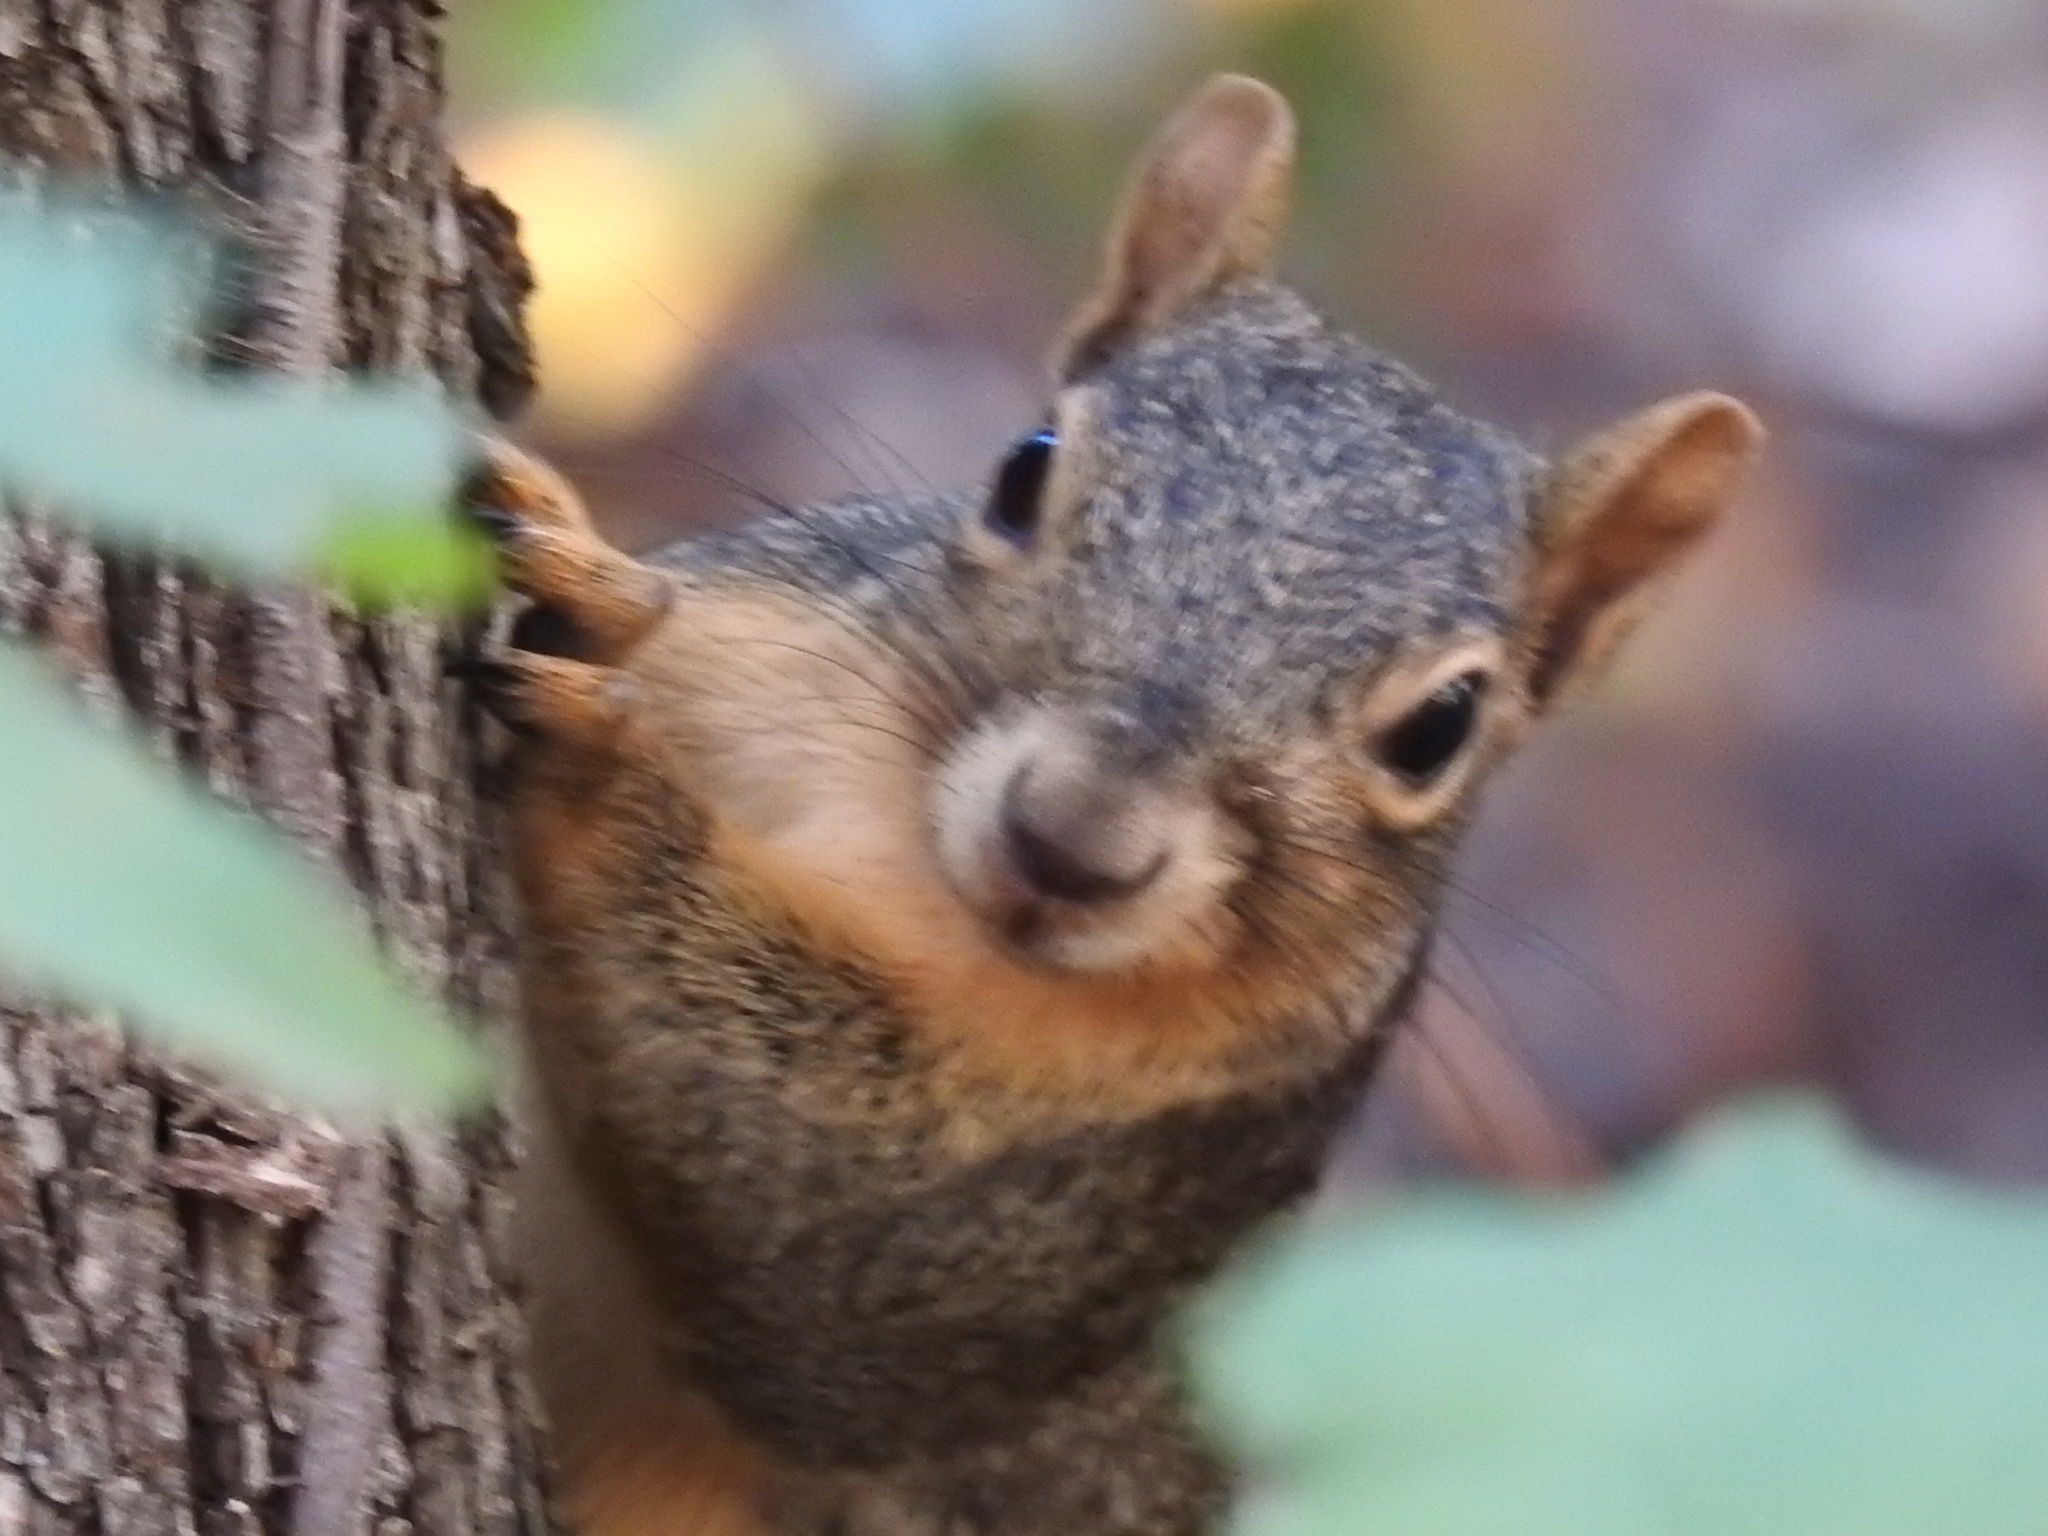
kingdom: Animalia
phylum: Chordata
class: Mammalia
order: Rodentia
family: Sciuridae
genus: Sciurus
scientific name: Sciurus niger
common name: Fox squirrel
